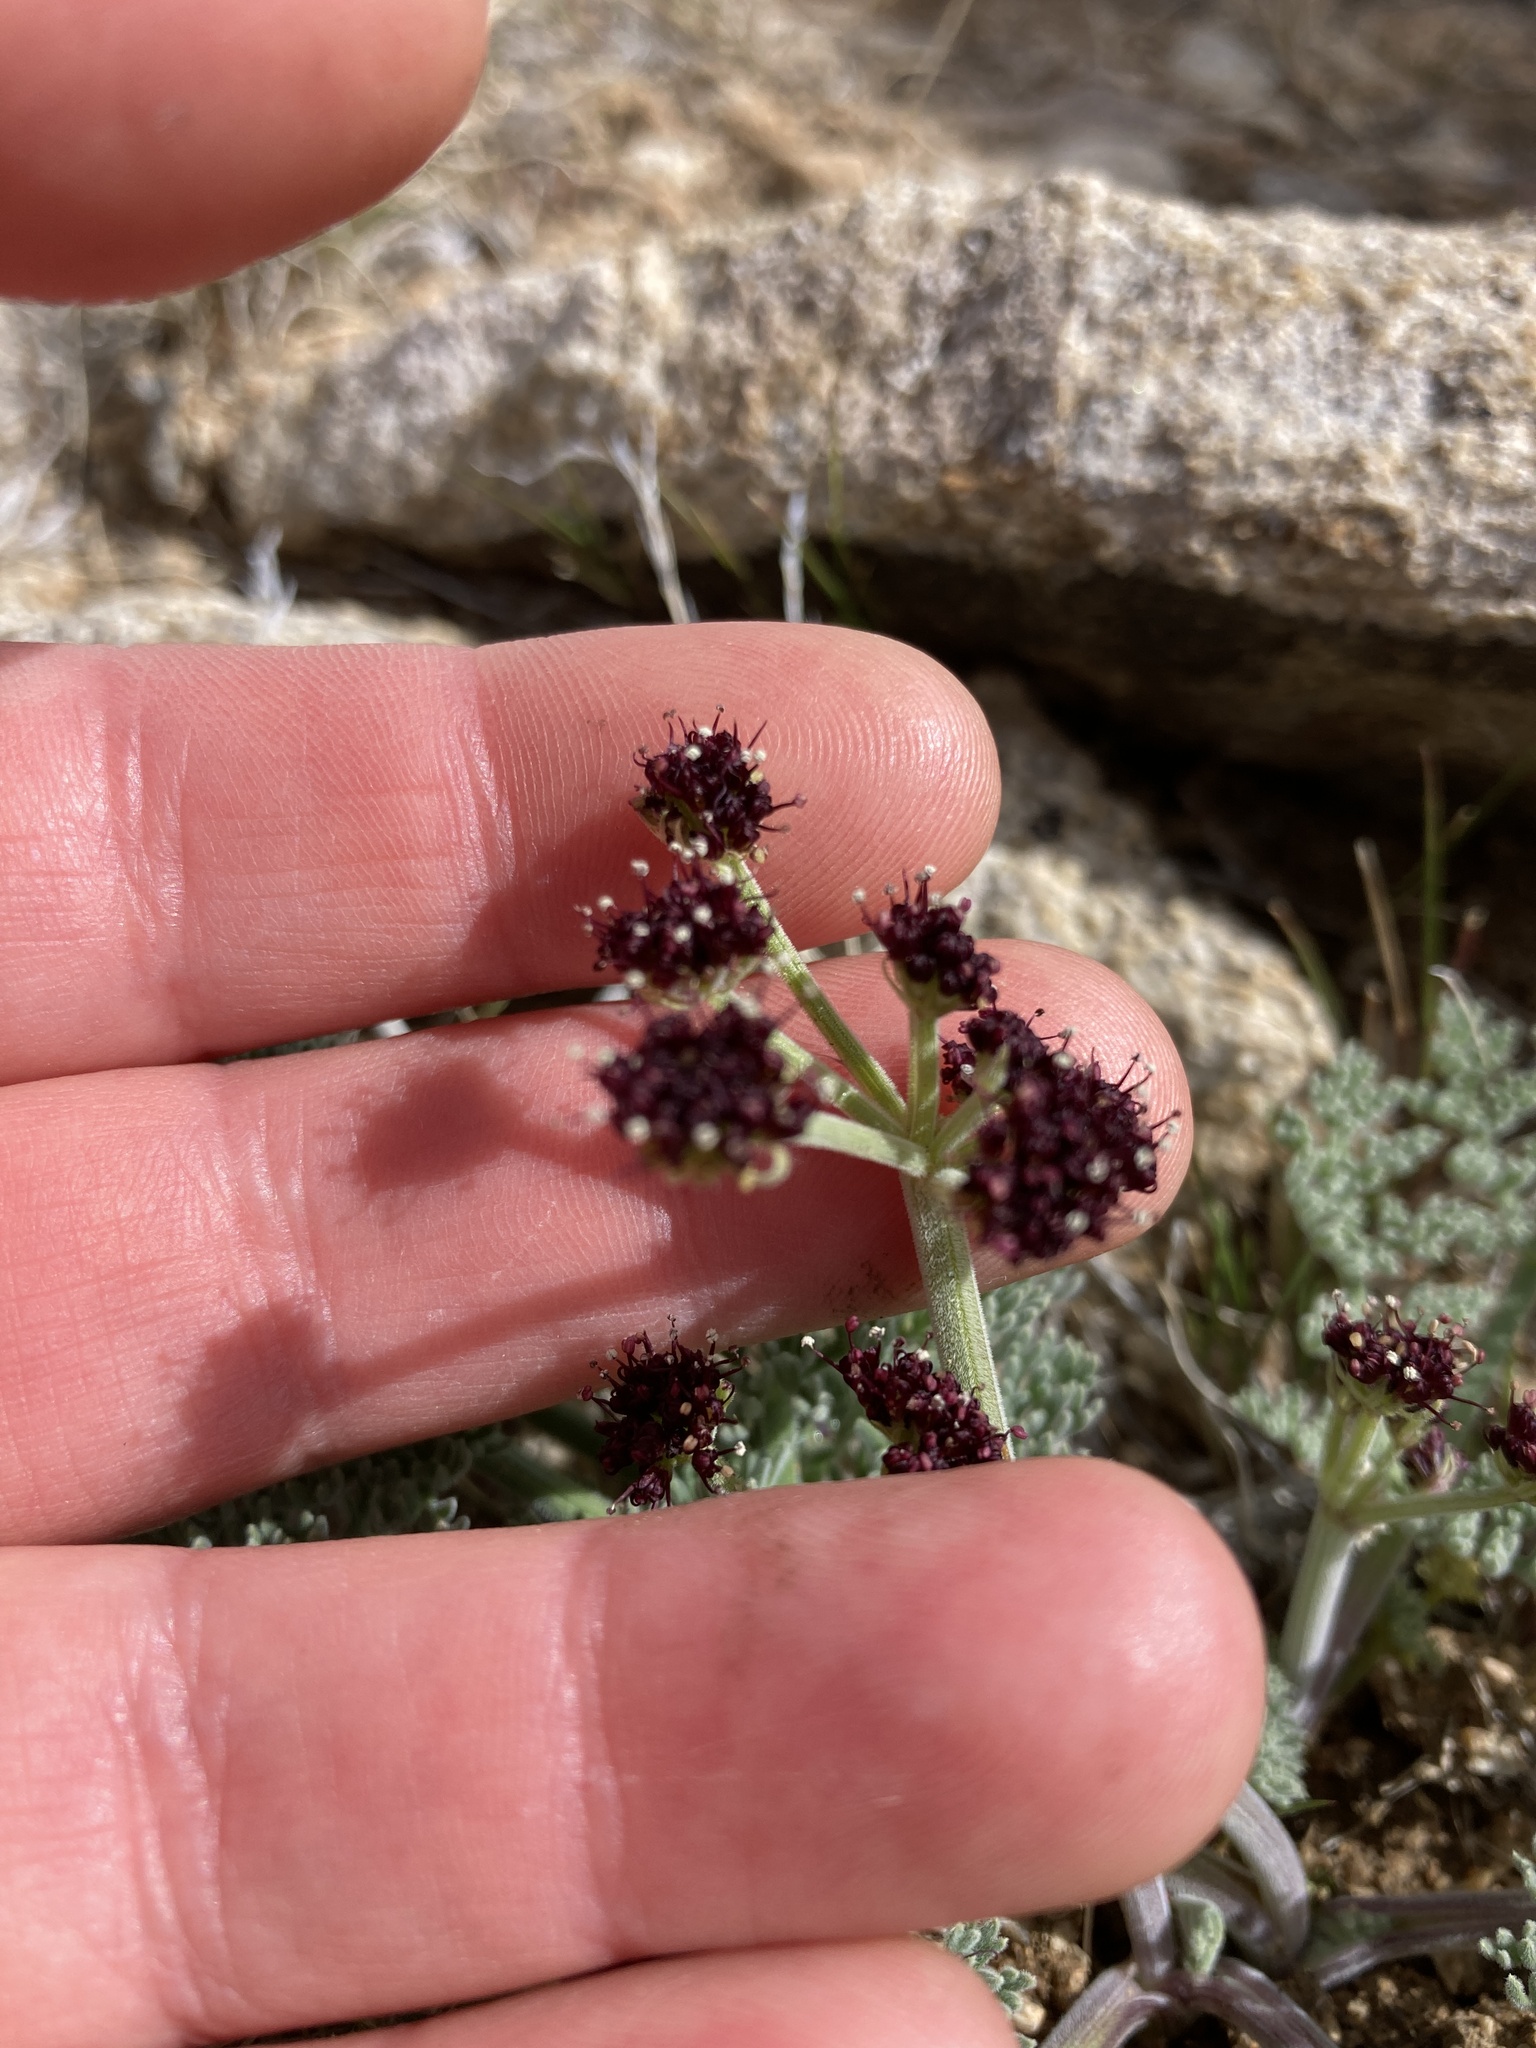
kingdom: Plantae
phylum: Tracheophyta
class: Magnoliopsida
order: Apiales
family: Apiaceae
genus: Lomatium
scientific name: Lomatium mohavense
